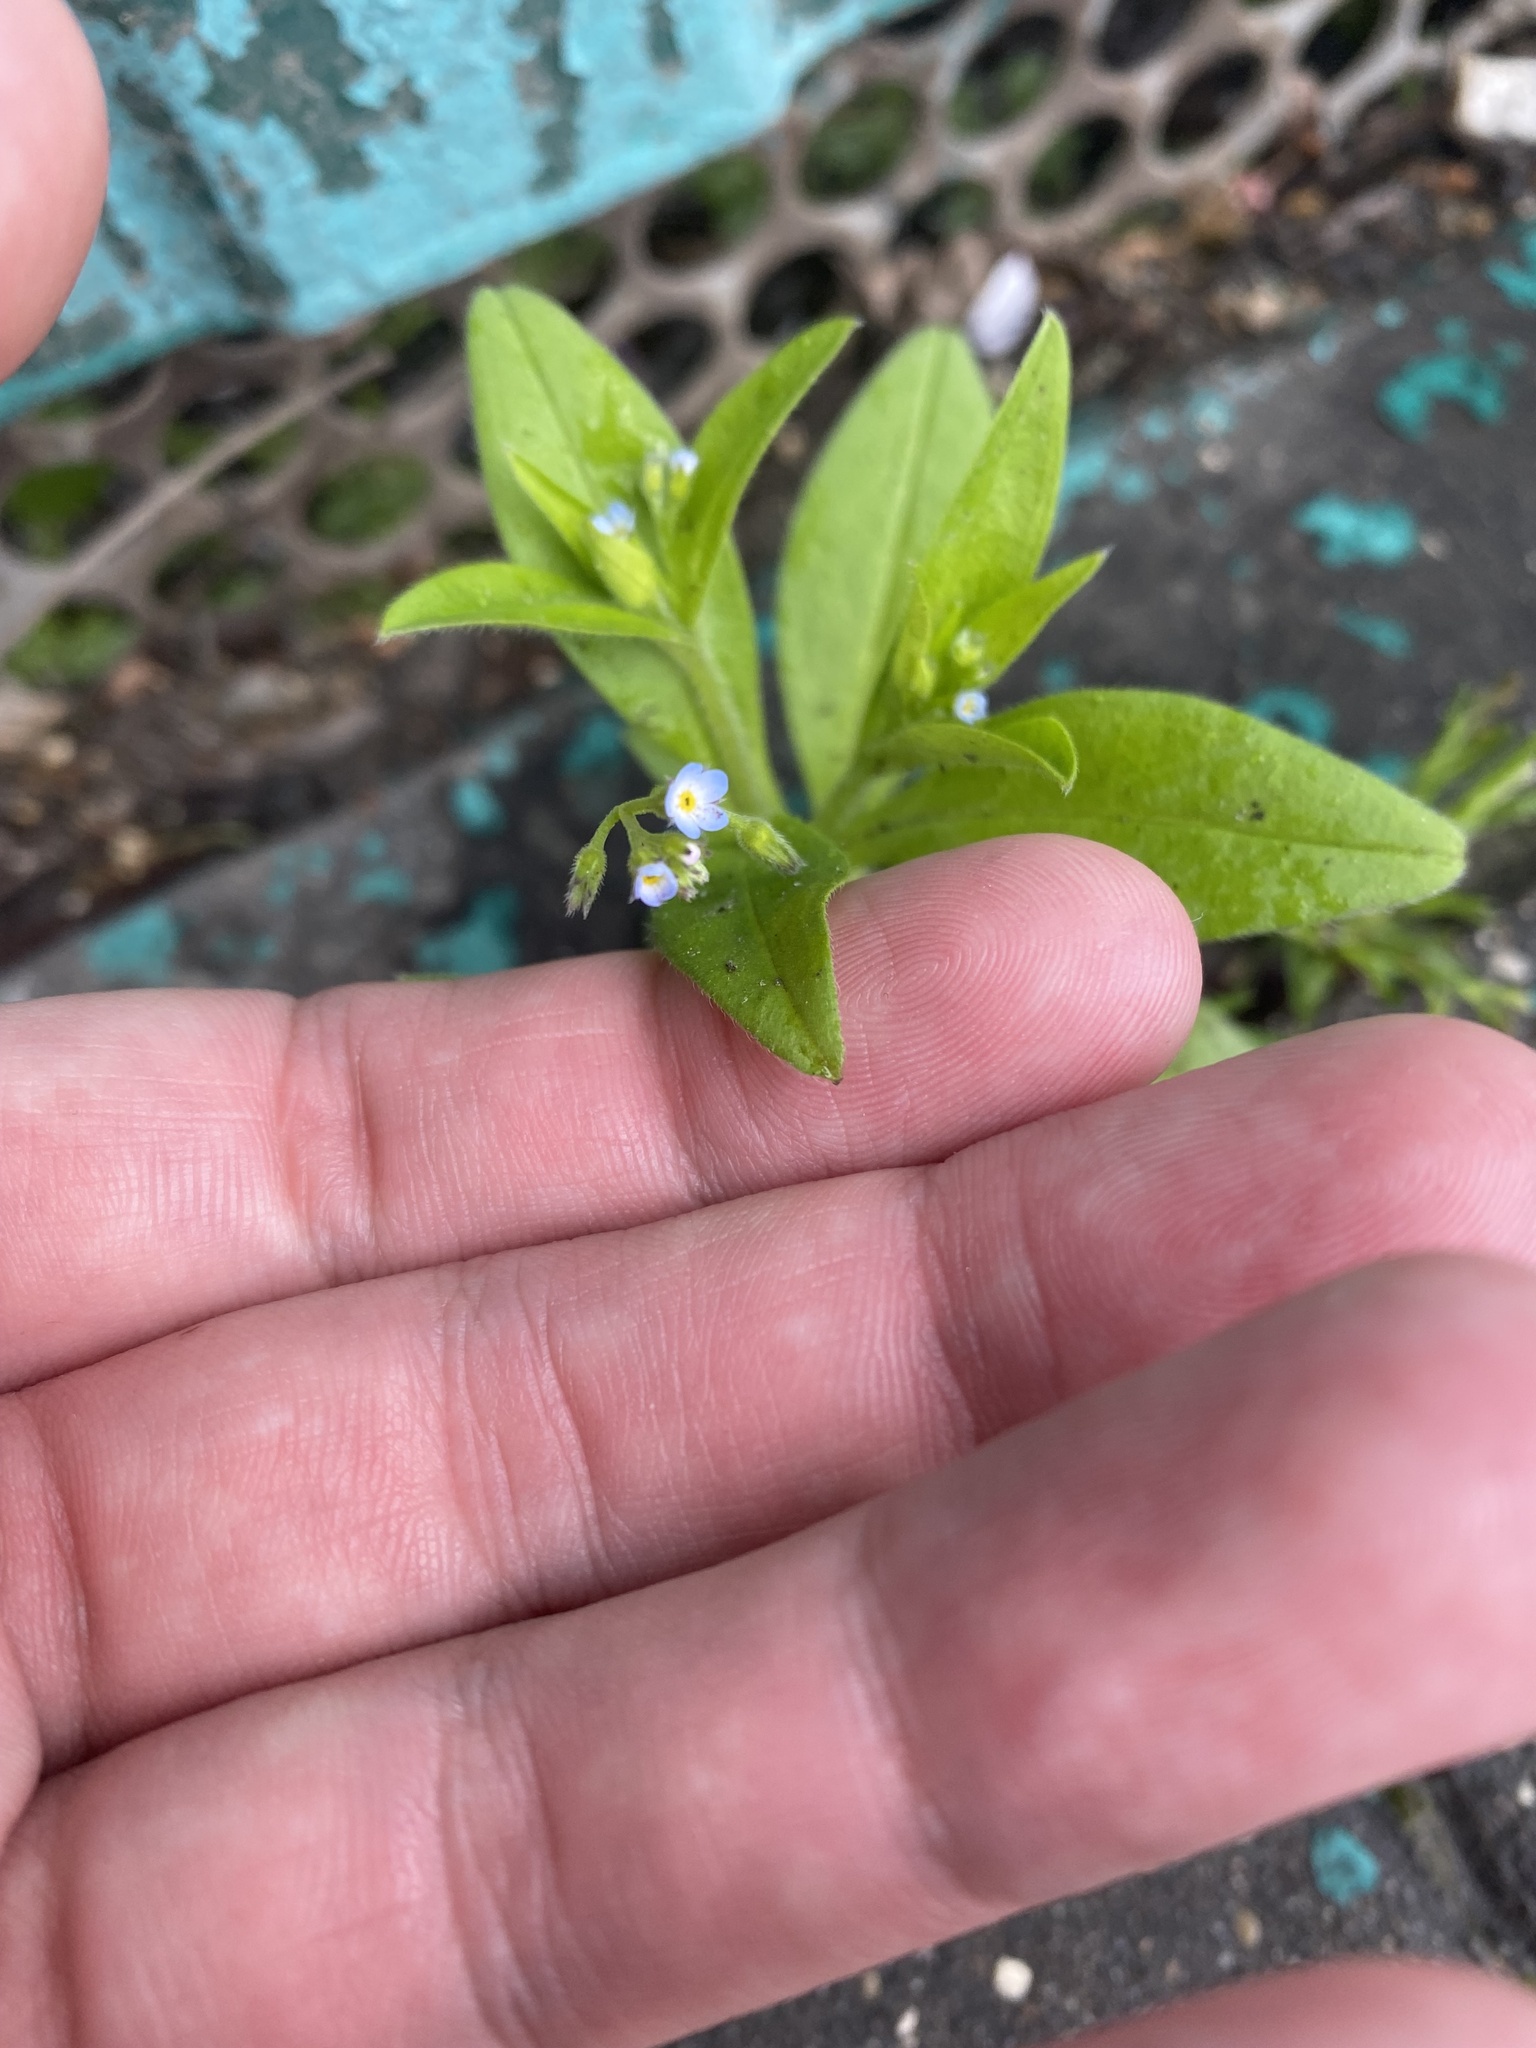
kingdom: Plantae
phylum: Tracheophyta
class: Magnoliopsida
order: Boraginales
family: Boraginaceae
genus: Myosotis
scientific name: Myosotis sparsiflora
